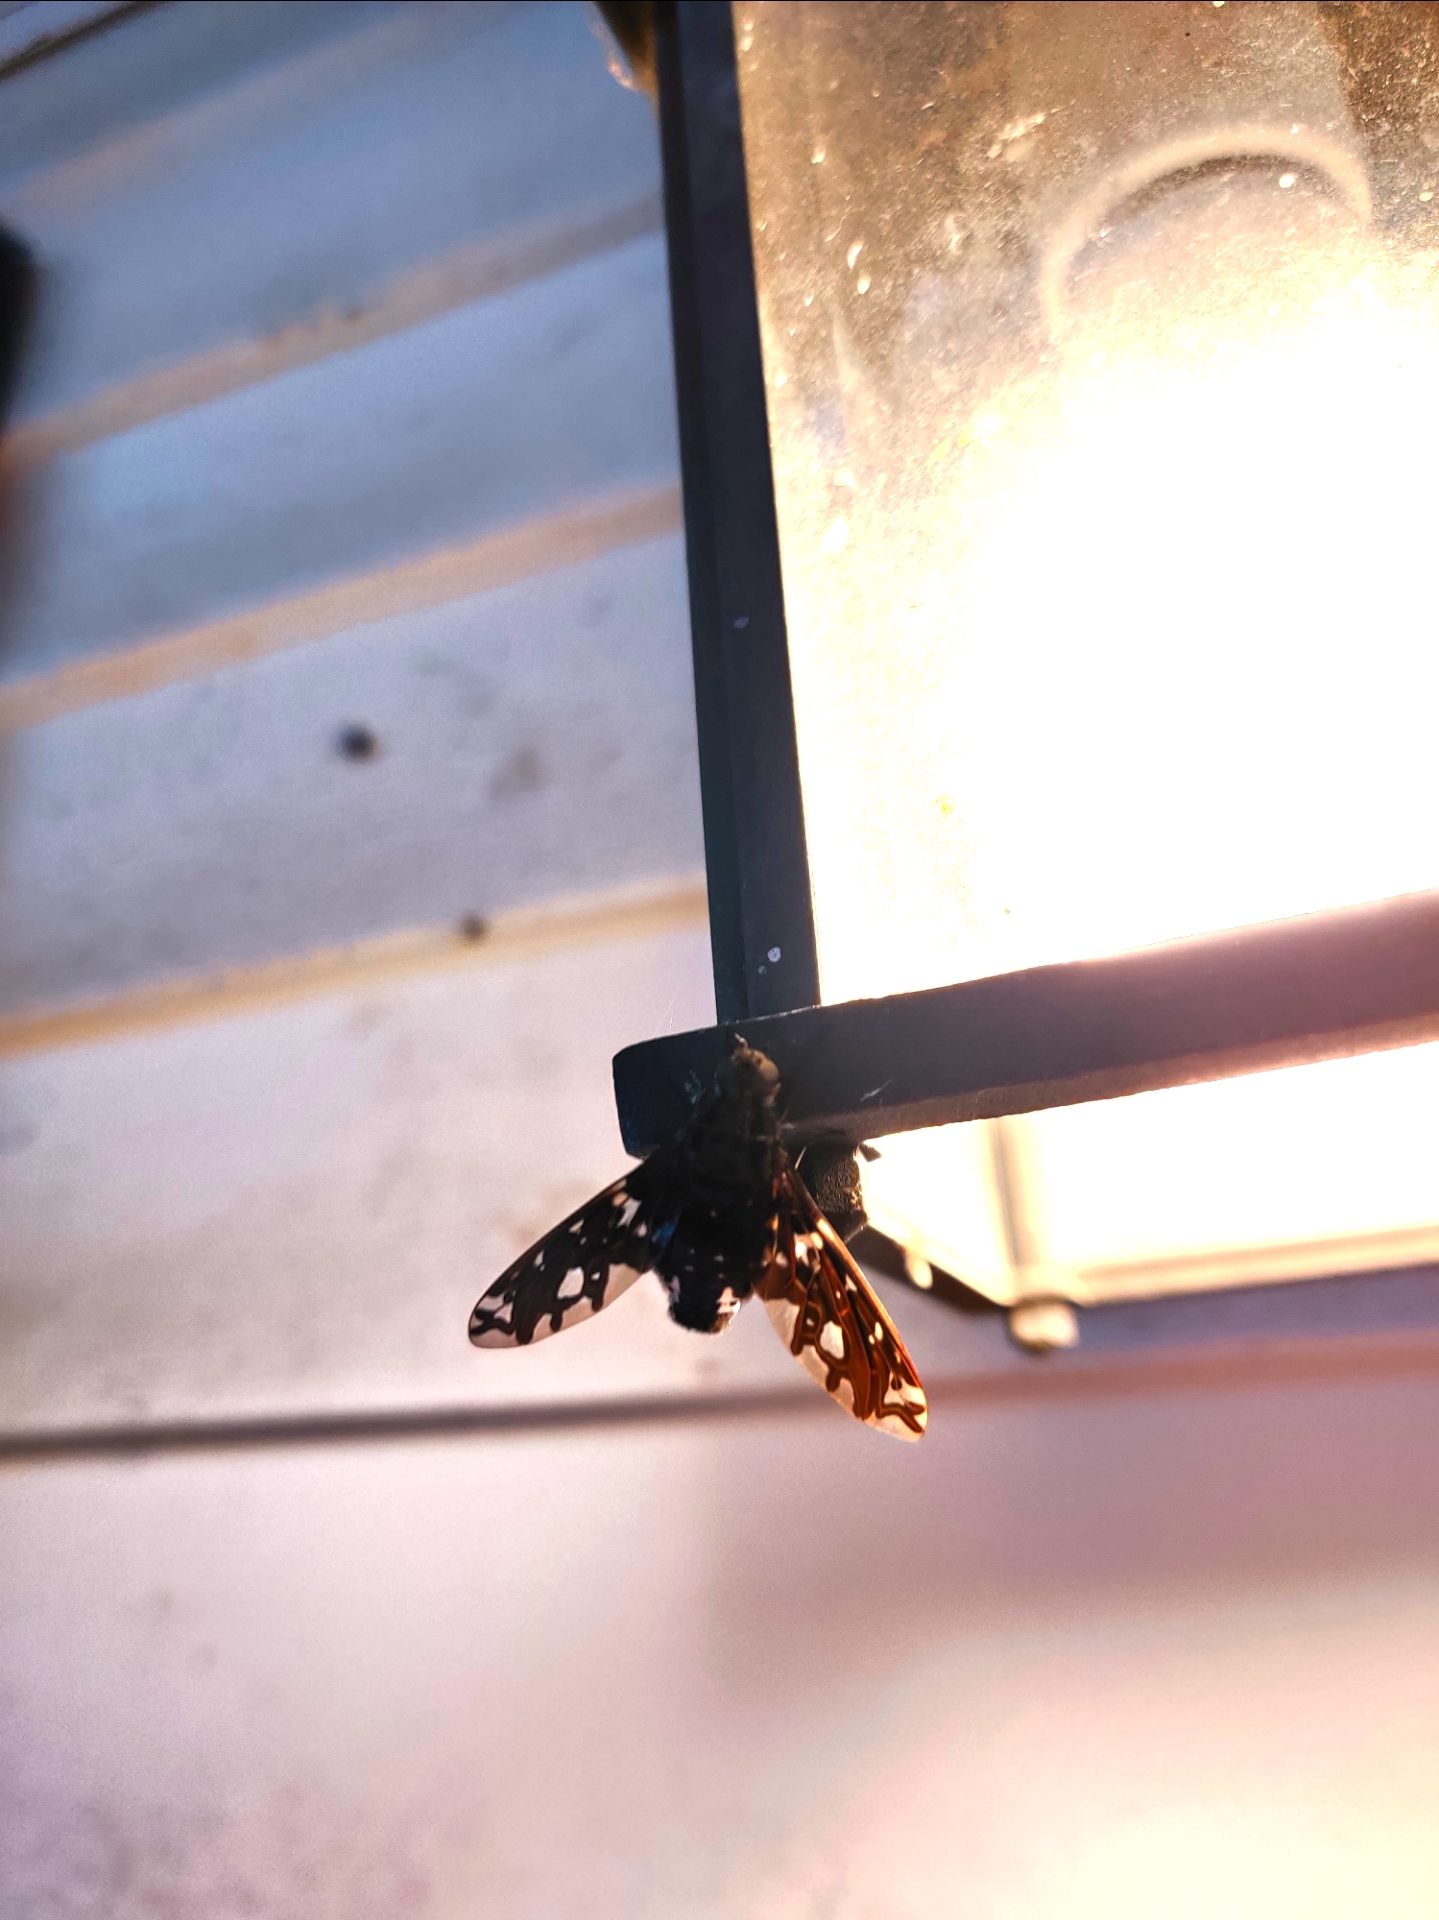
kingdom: Animalia
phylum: Arthropoda
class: Insecta
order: Diptera
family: Bombyliidae
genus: Xenox
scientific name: Xenox tigrinus
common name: Tiger bee fly
